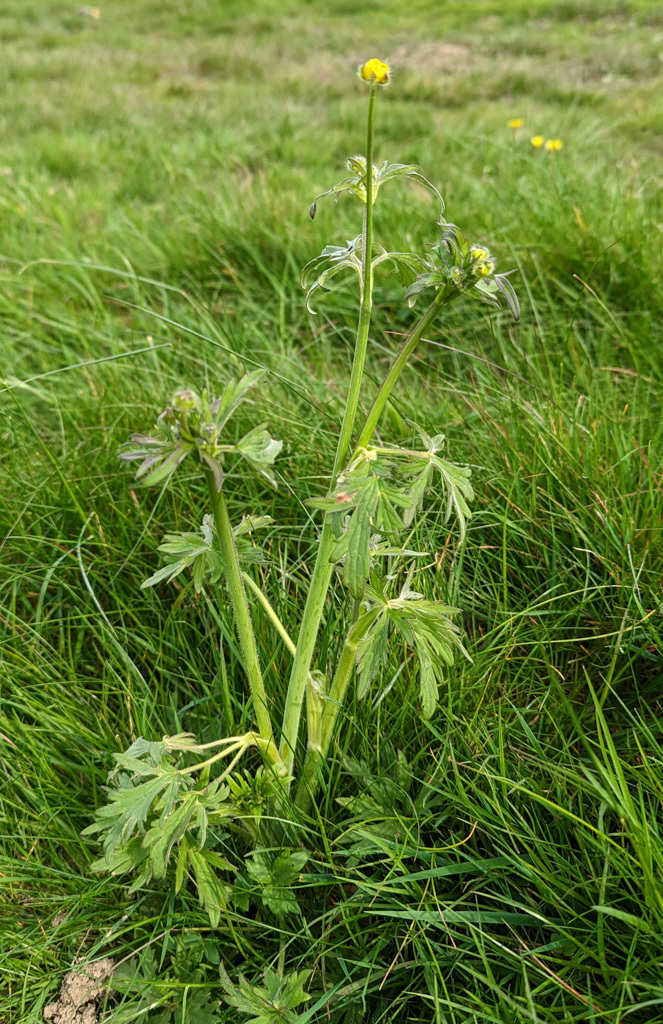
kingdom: Plantae
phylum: Tracheophyta
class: Magnoliopsida
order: Ranunculales
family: Ranunculaceae
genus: Ranunculus
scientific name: Ranunculus acris
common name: Meadow buttercup
